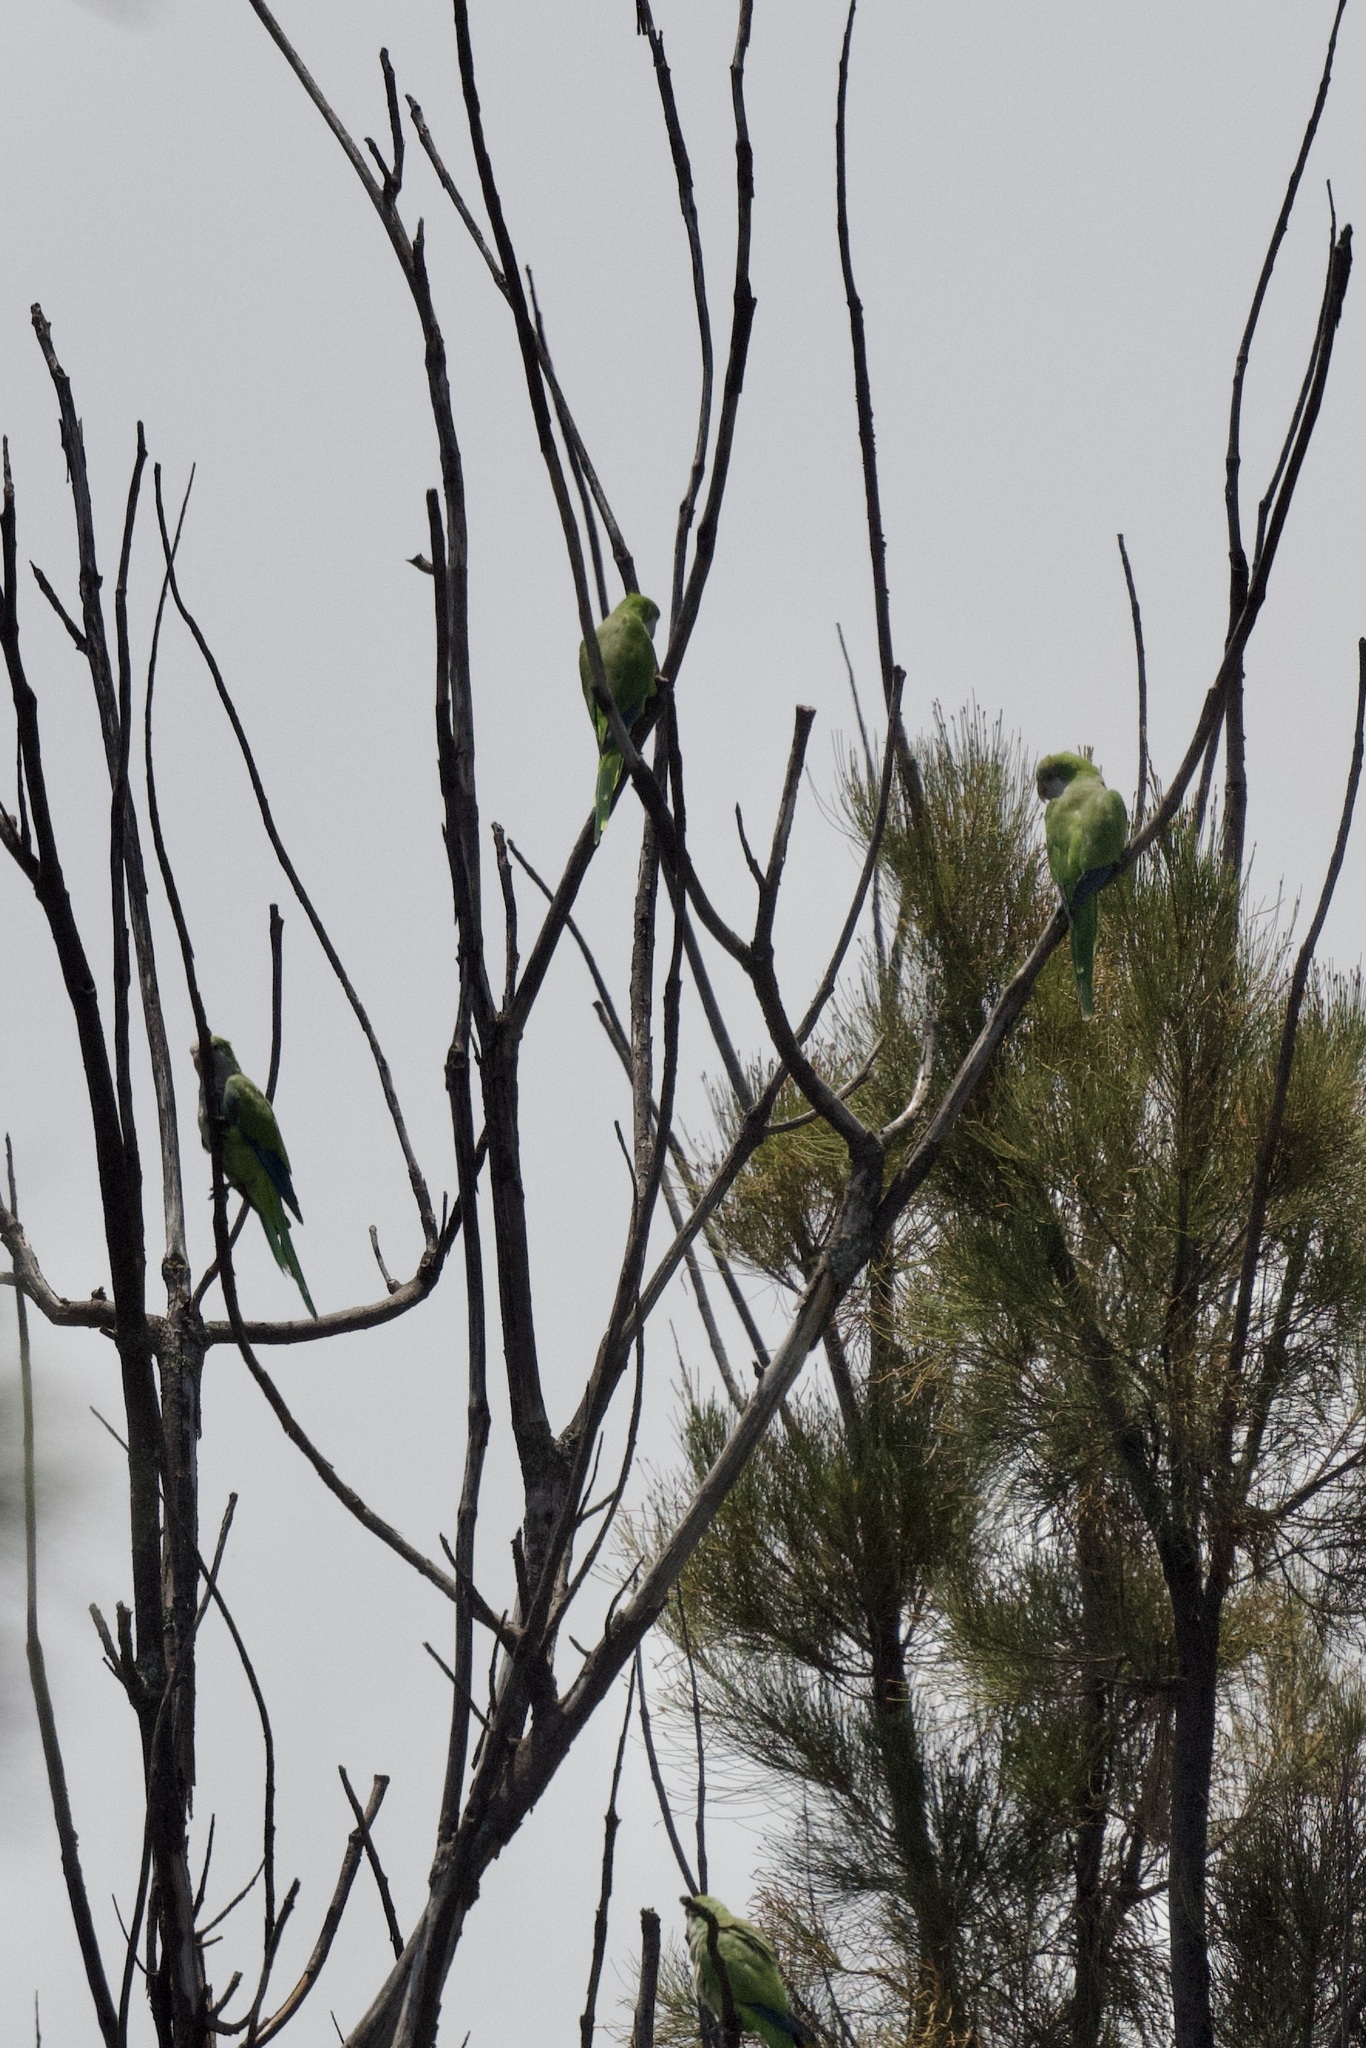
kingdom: Animalia
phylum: Chordata
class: Aves
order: Psittaciformes
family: Psittacidae
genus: Myiopsitta
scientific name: Myiopsitta monachus
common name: Monk parakeet
